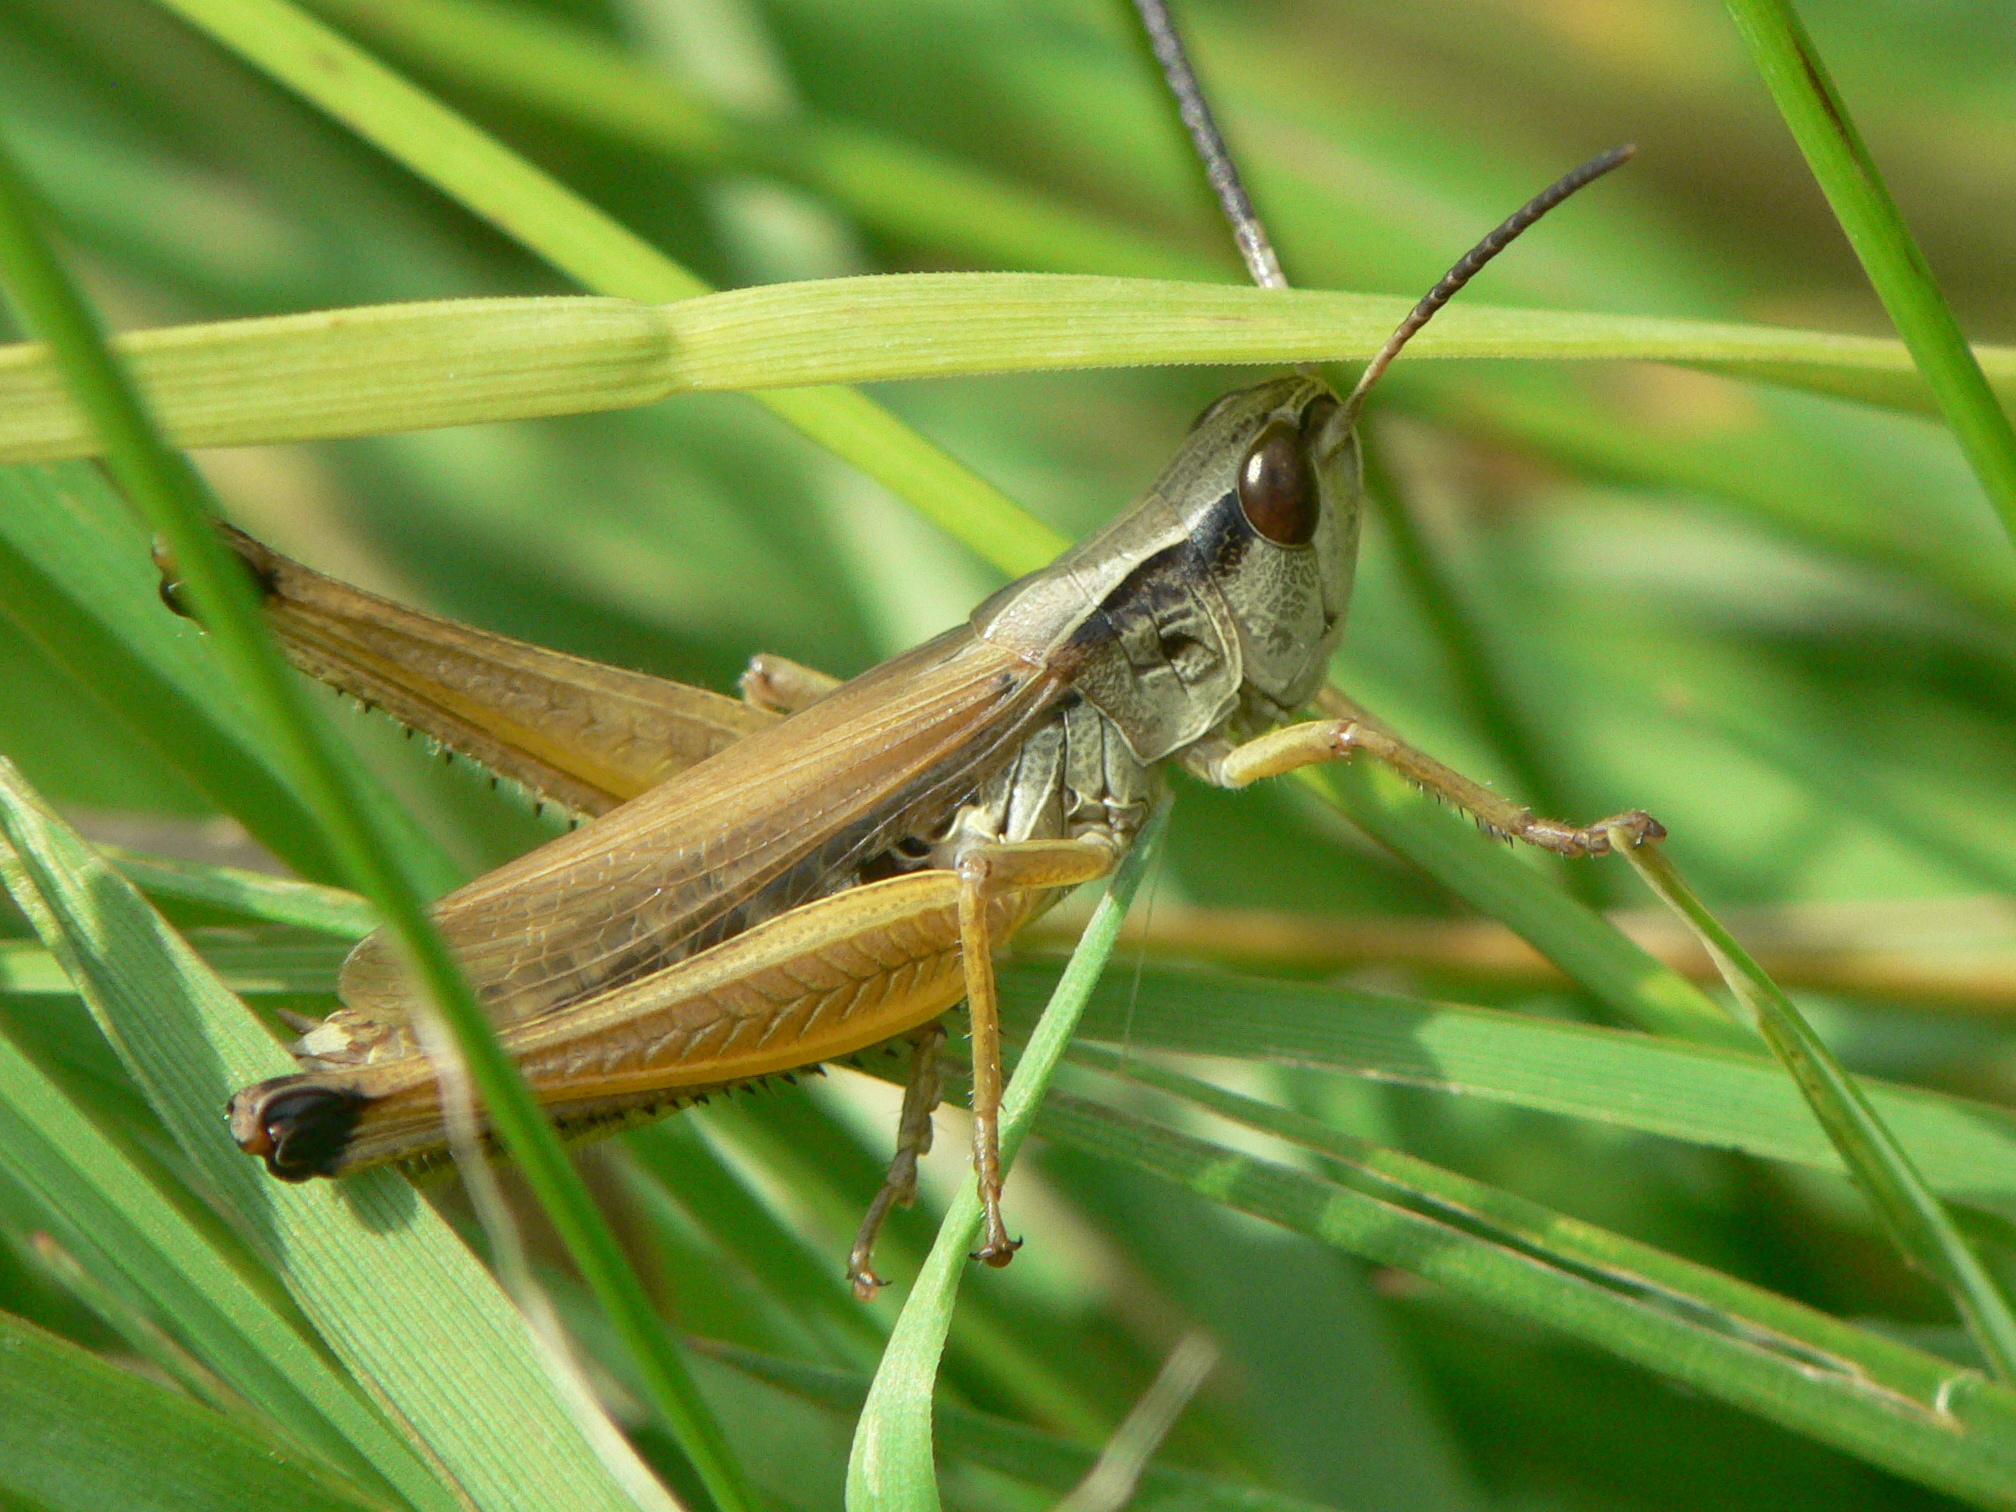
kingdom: Animalia
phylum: Arthropoda
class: Insecta
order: Orthoptera
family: Acrididae
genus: Pseudochorthippus
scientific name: Pseudochorthippus curtipennis
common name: Marsh meadow grasshopper
